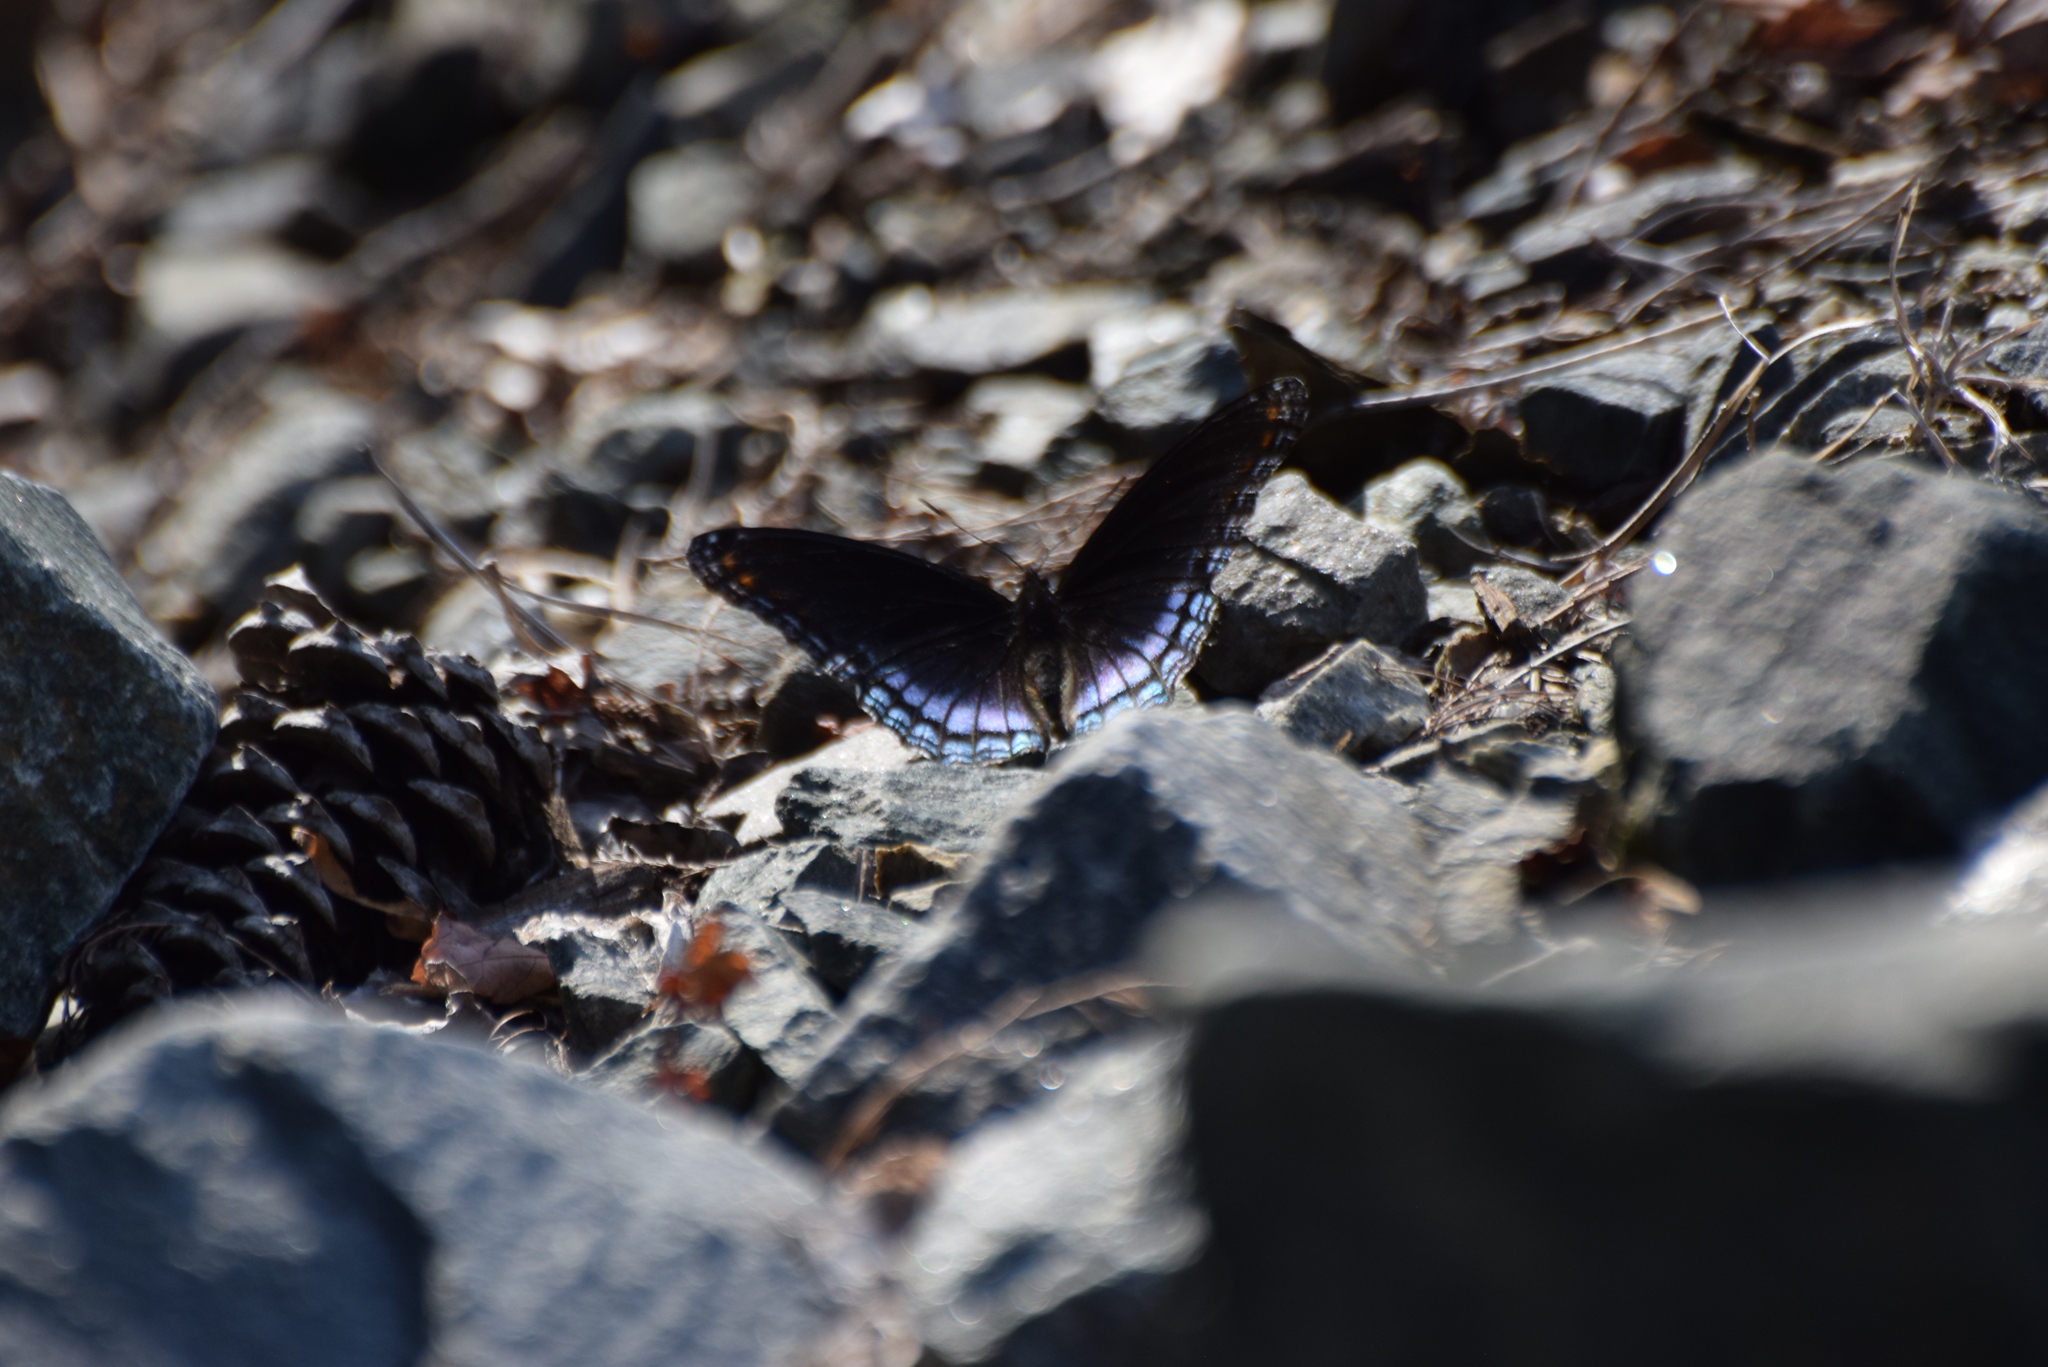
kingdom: Animalia
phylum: Arthropoda
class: Insecta
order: Lepidoptera
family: Nymphalidae
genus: Limenitis
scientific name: Limenitis astyanax
